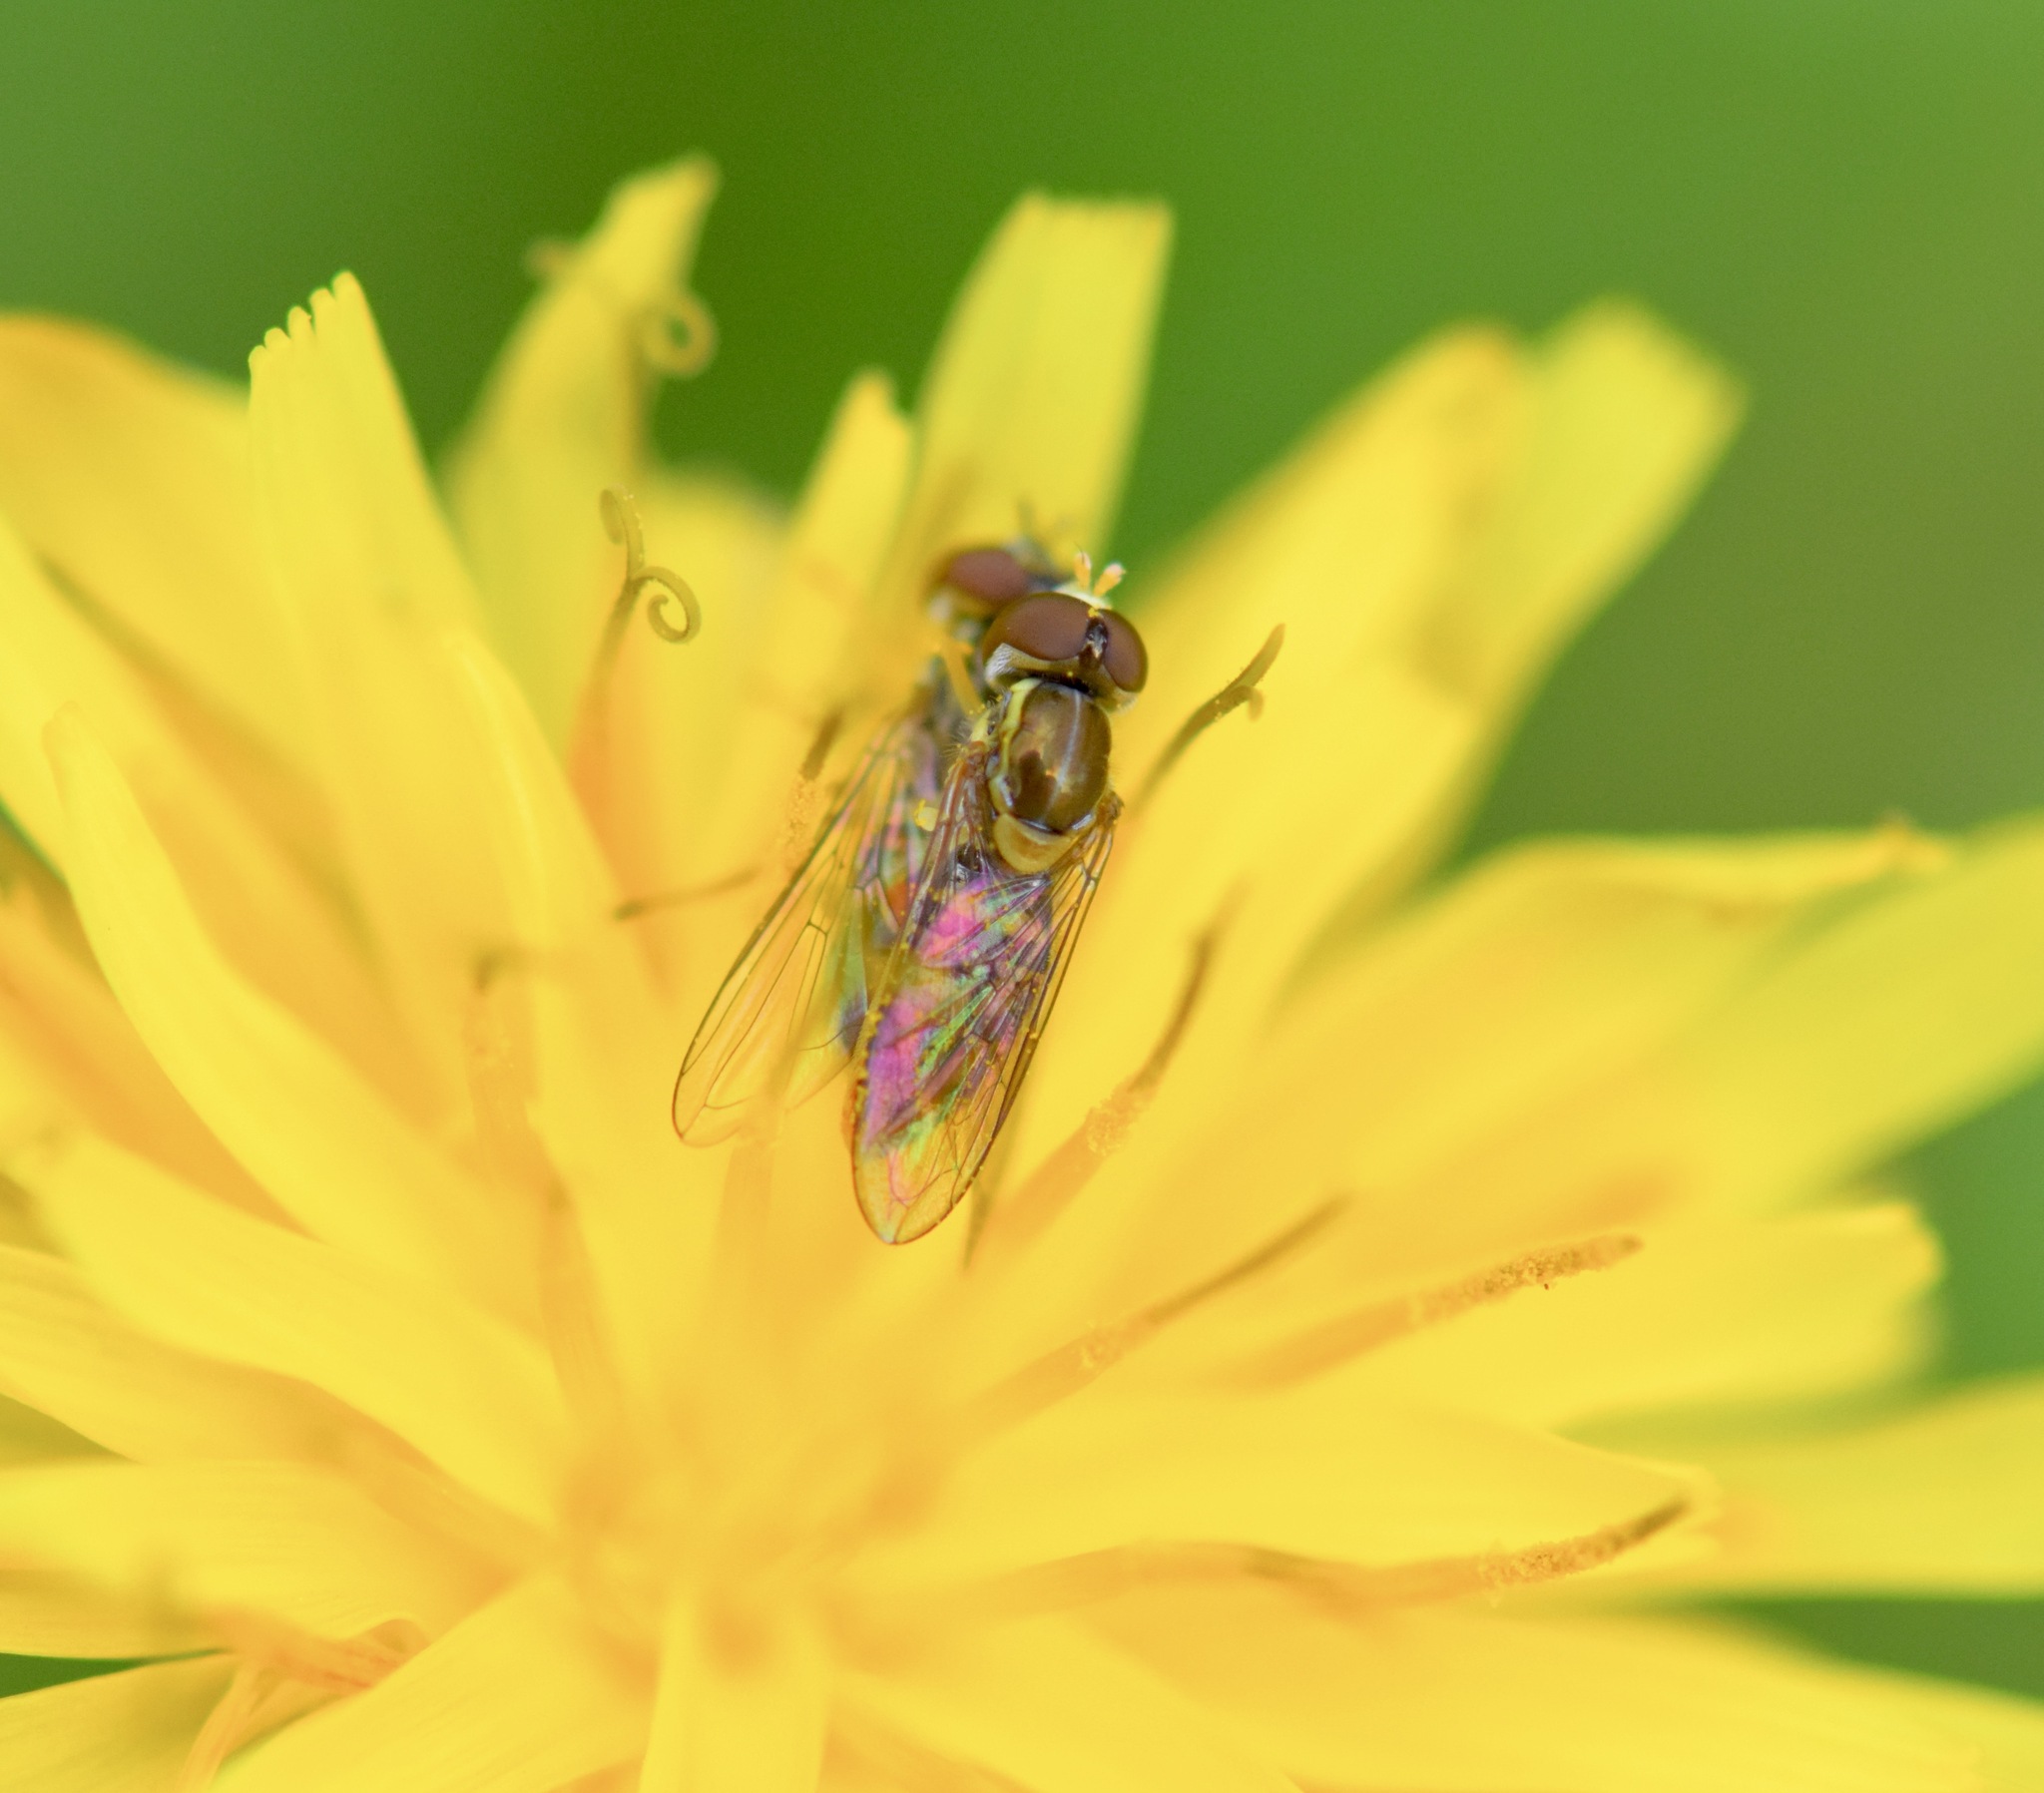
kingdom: Animalia
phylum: Arthropoda
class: Insecta
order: Diptera
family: Syrphidae
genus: Toxomerus
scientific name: Toxomerus marginatus
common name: Syrphid fly
